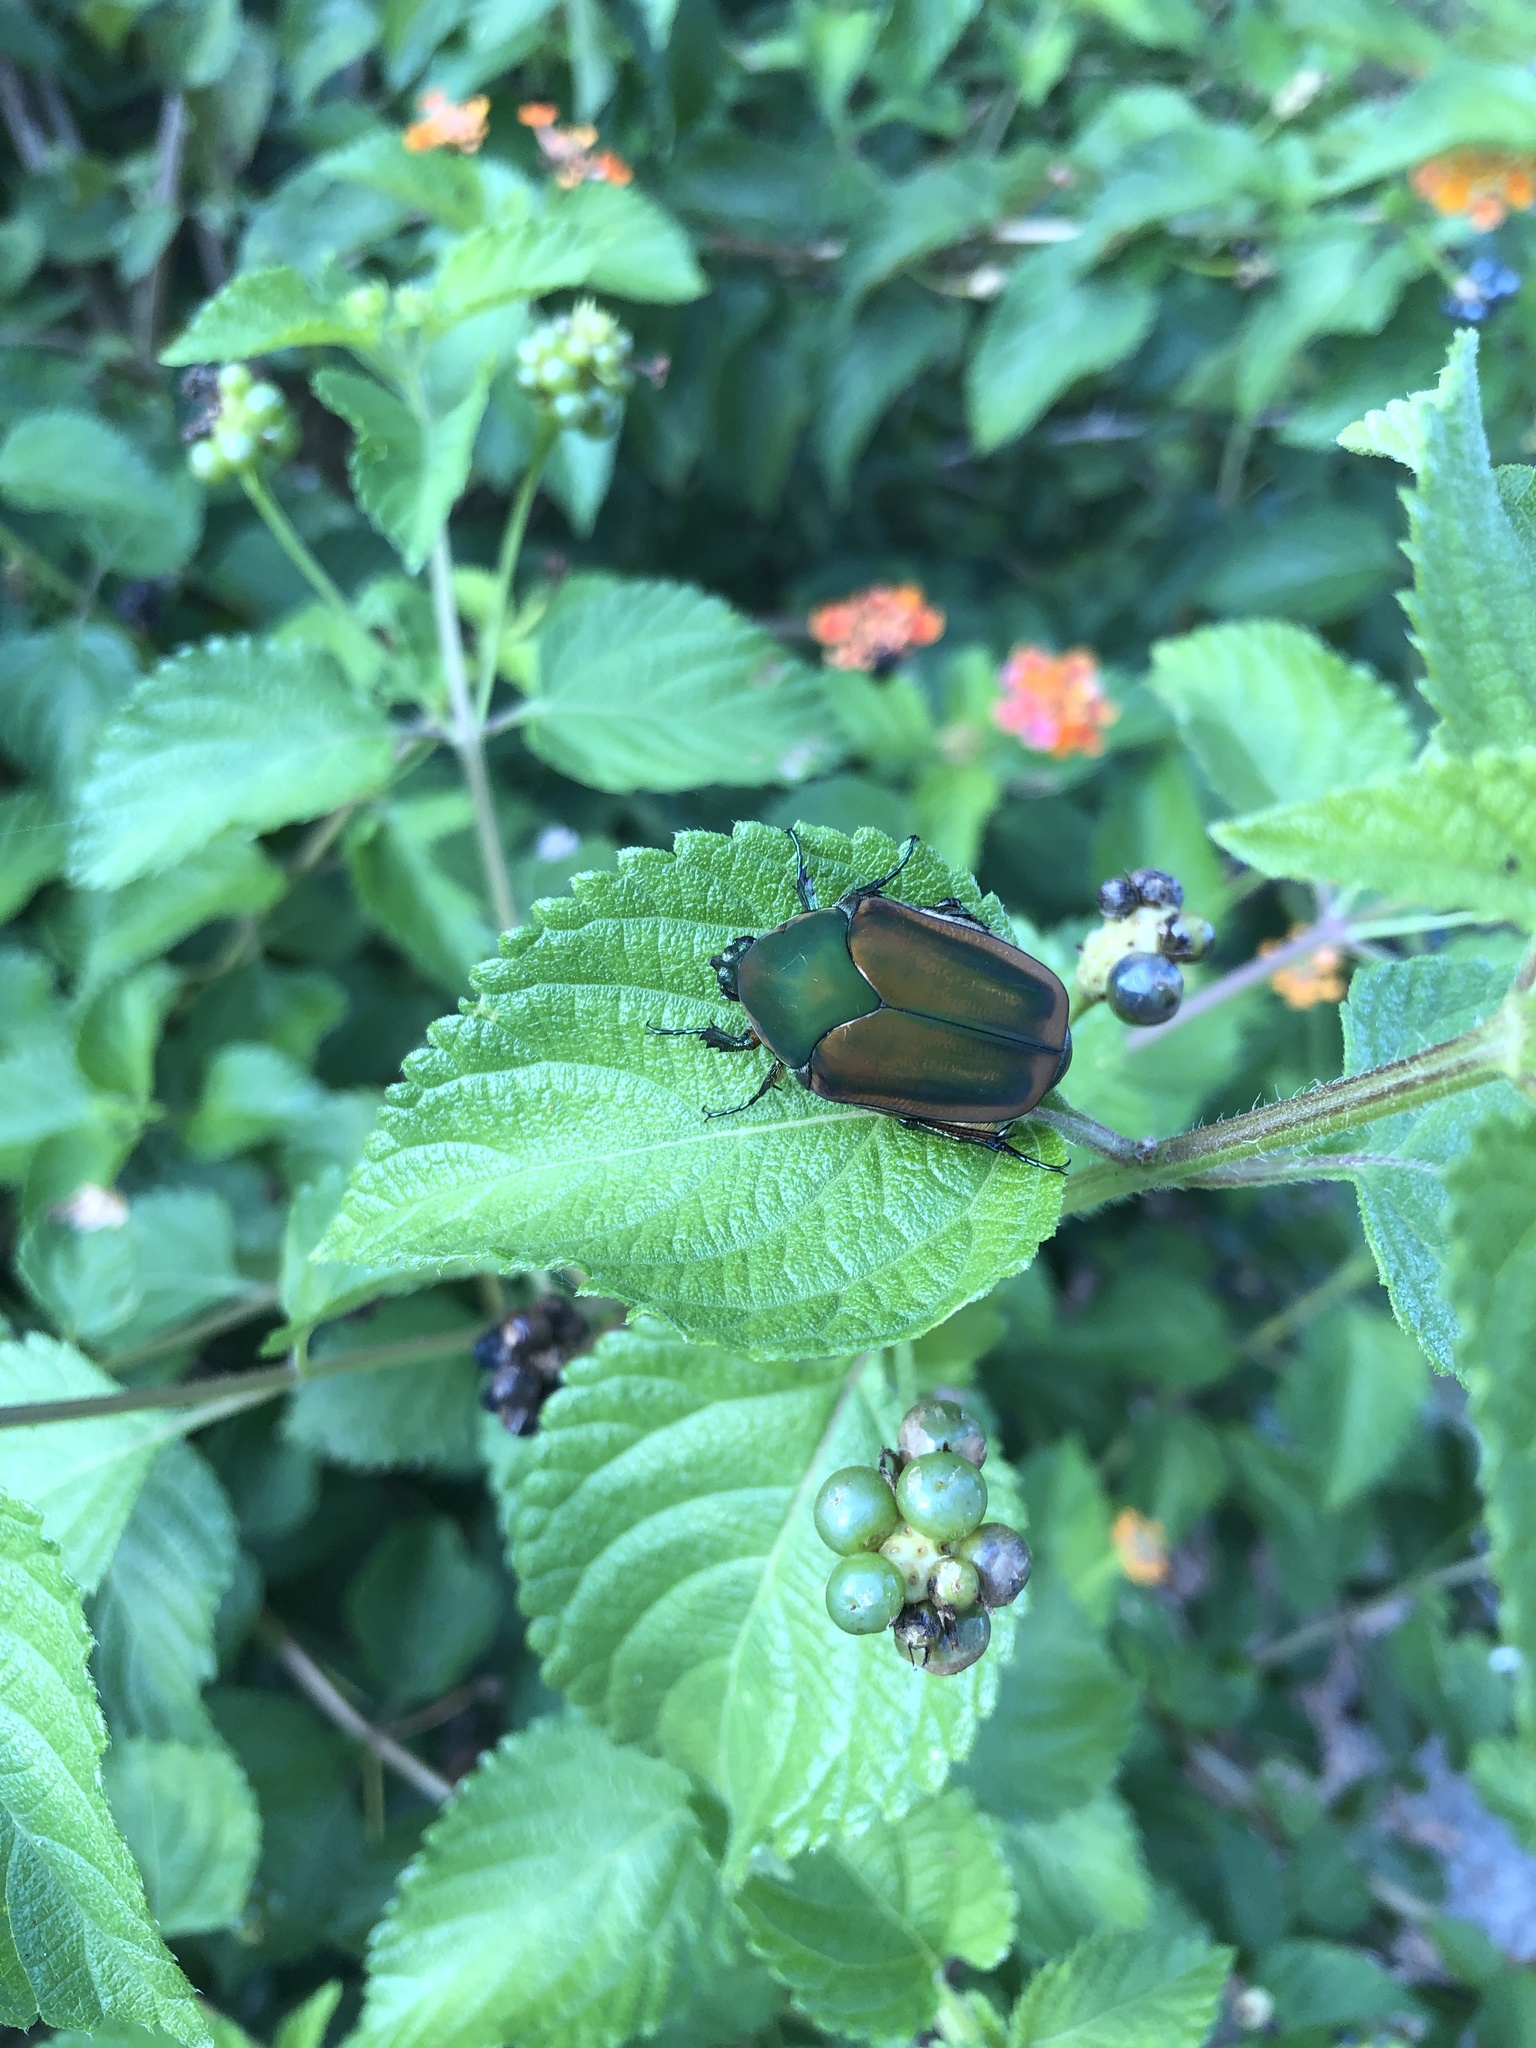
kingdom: Animalia
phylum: Arthropoda
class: Insecta
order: Coleoptera
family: Scarabaeidae
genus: Cotinis
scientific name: Cotinis nitida
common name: Common green june beetle
